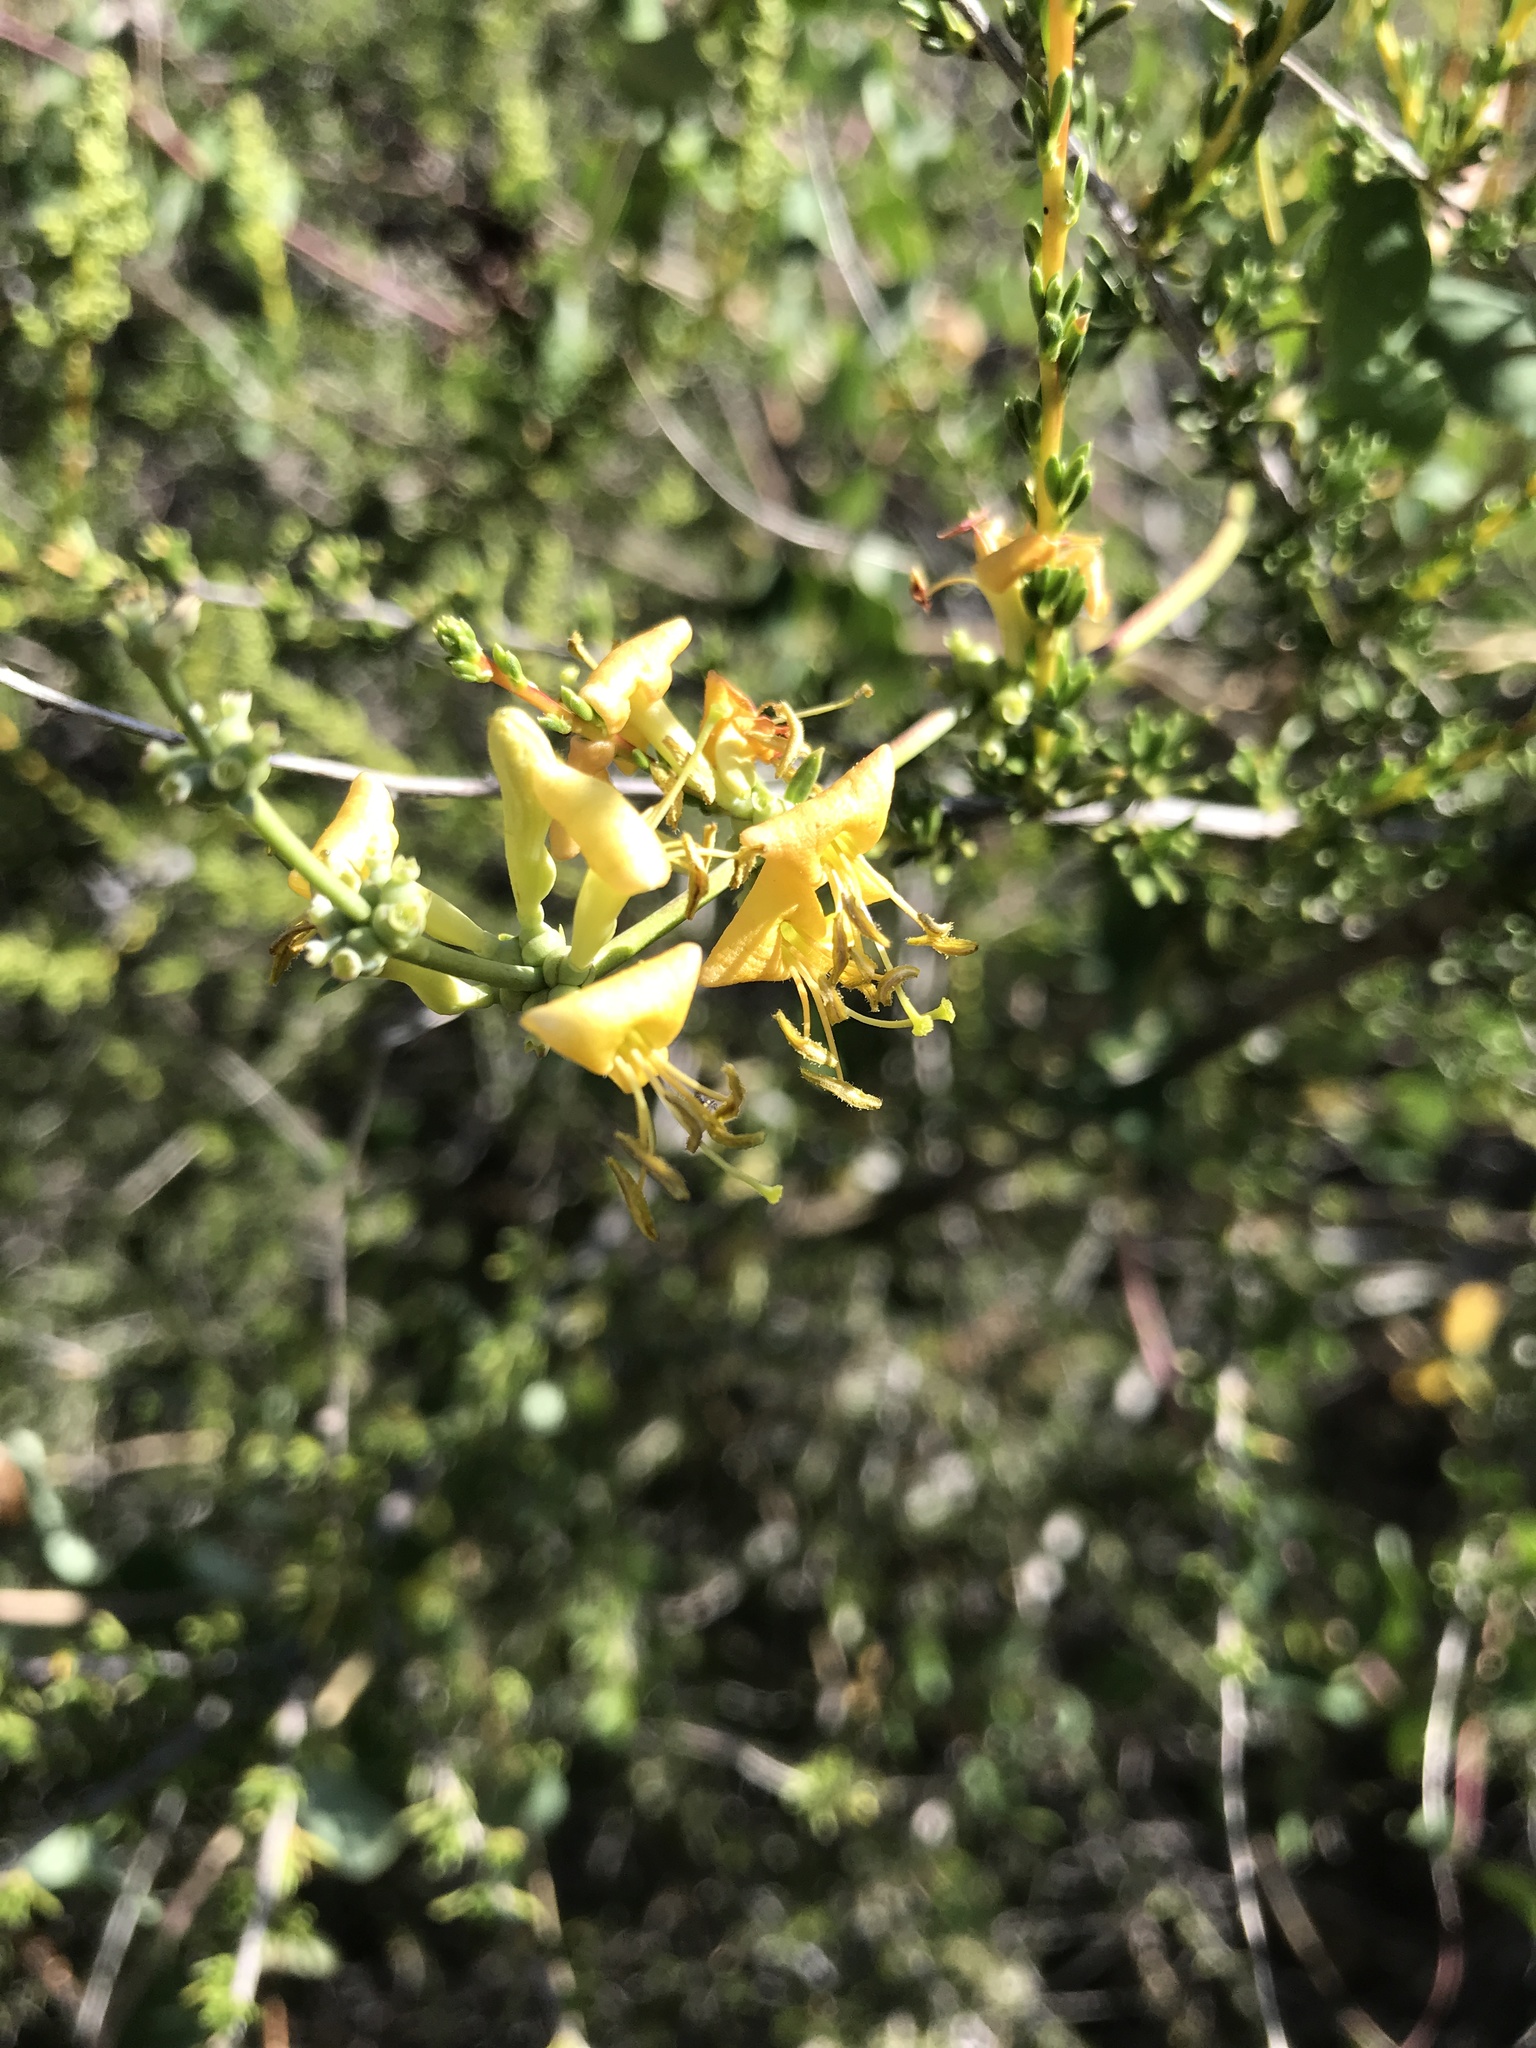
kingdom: Plantae
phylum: Tracheophyta
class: Magnoliopsida
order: Dipsacales
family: Caprifoliaceae
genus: Lonicera
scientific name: Lonicera interrupta
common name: Chaparral honeysuckle
